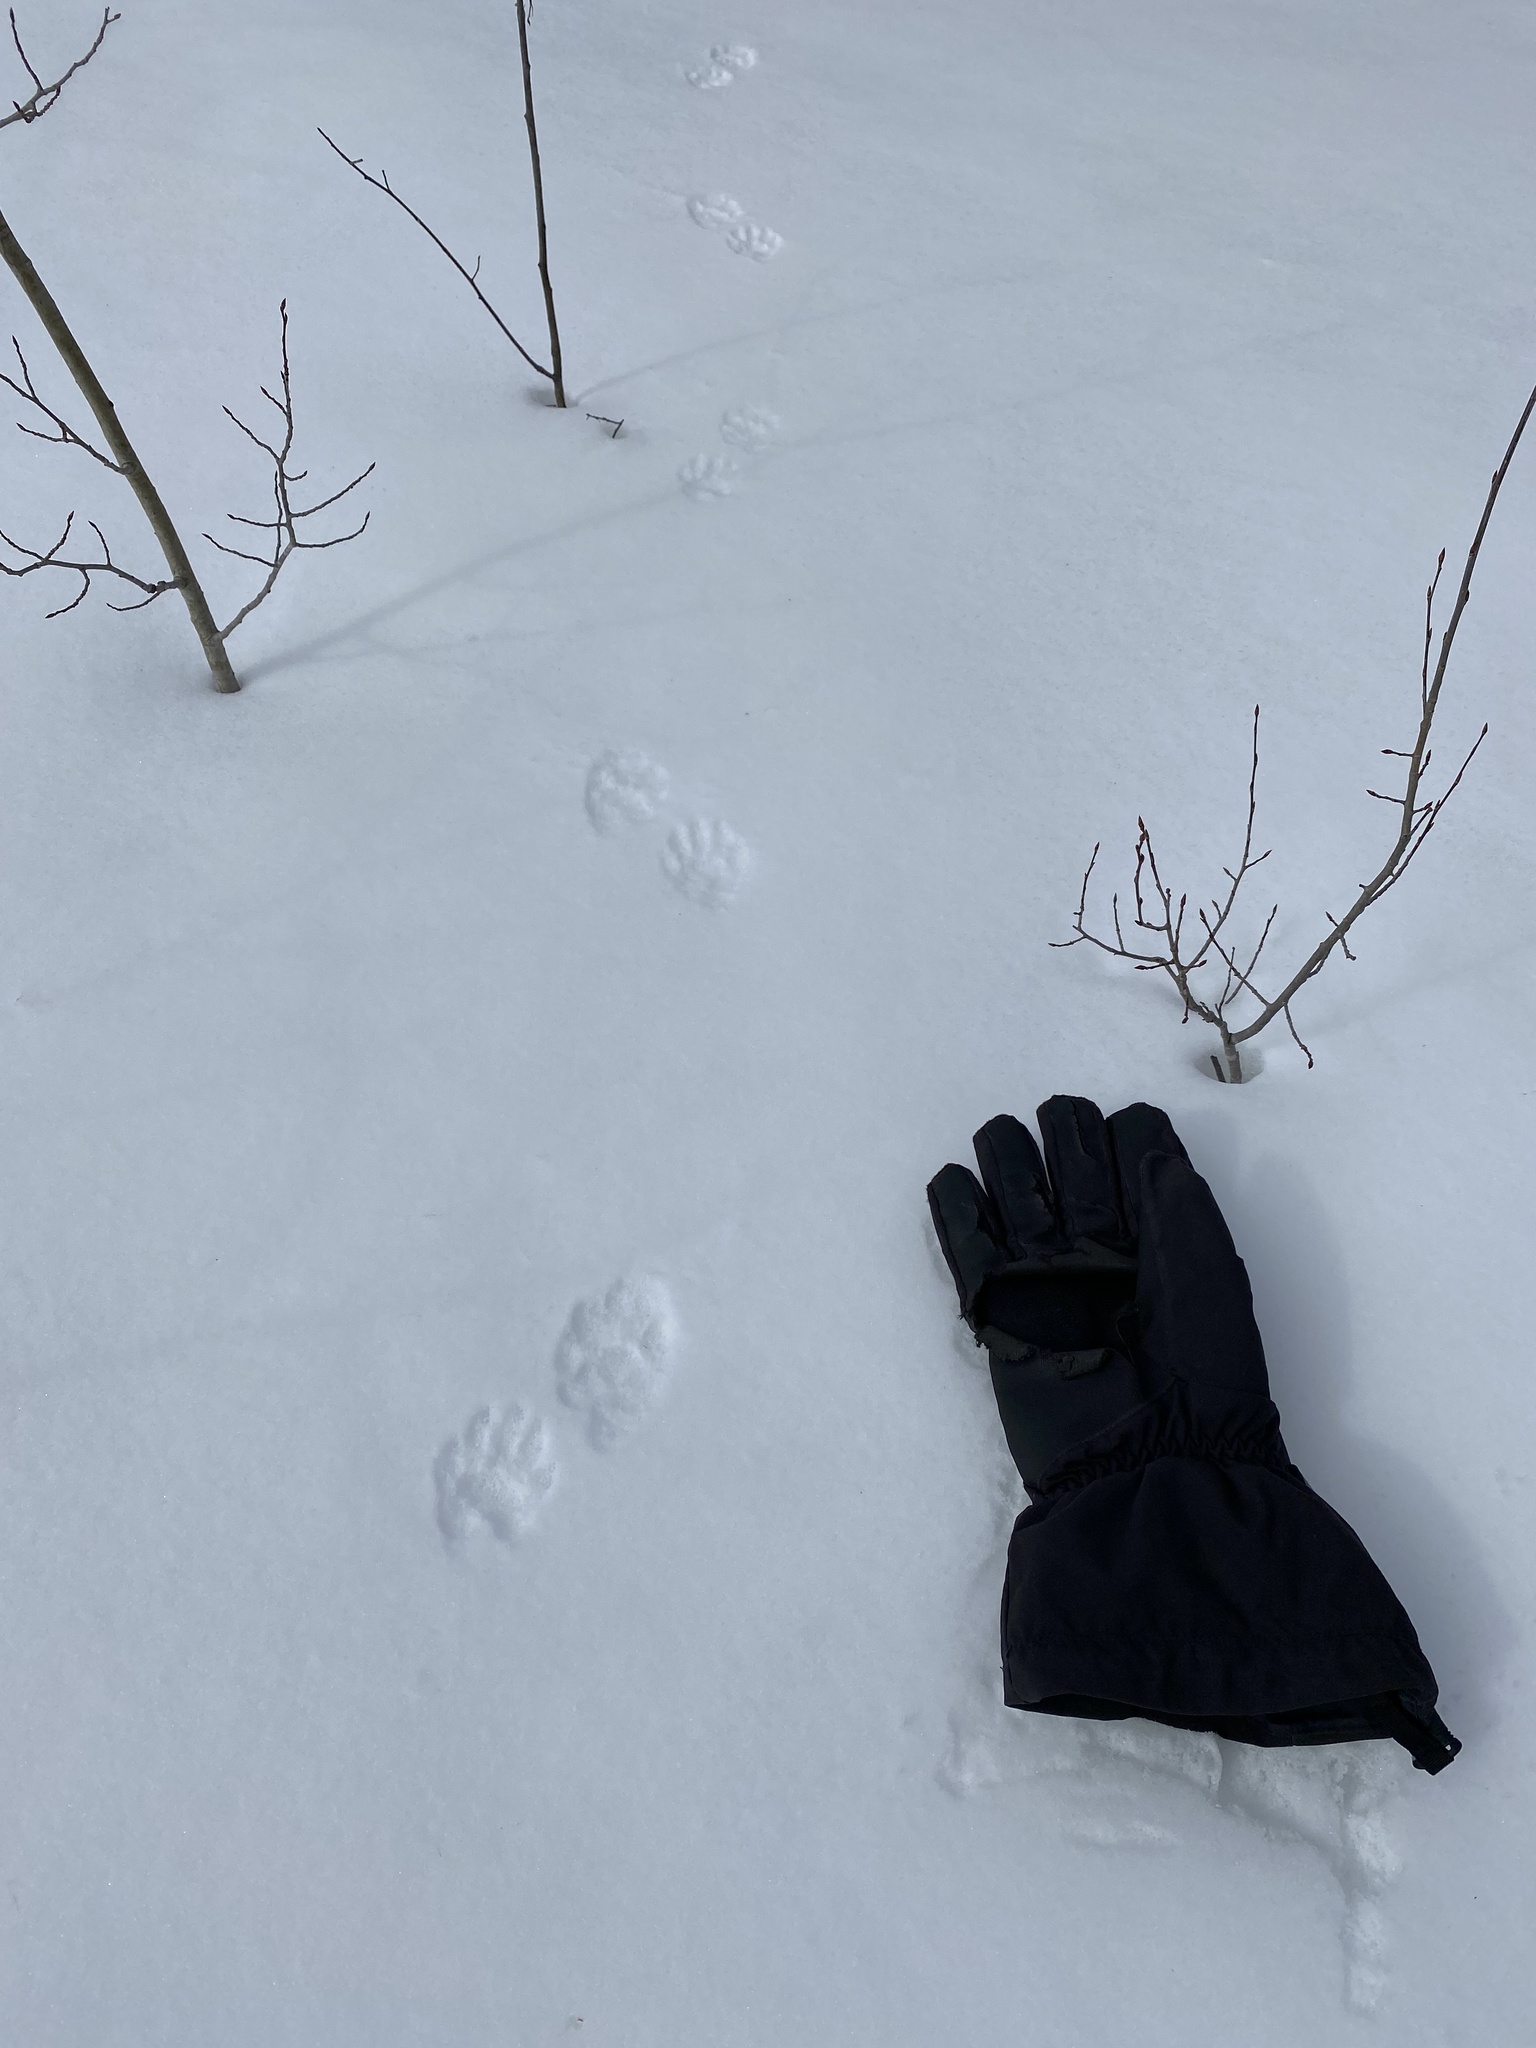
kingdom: Animalia
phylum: Chordata
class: Mammalia
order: Carnivora
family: Procyonidae
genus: Procyon
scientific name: Procyon lotor
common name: Raccoon
